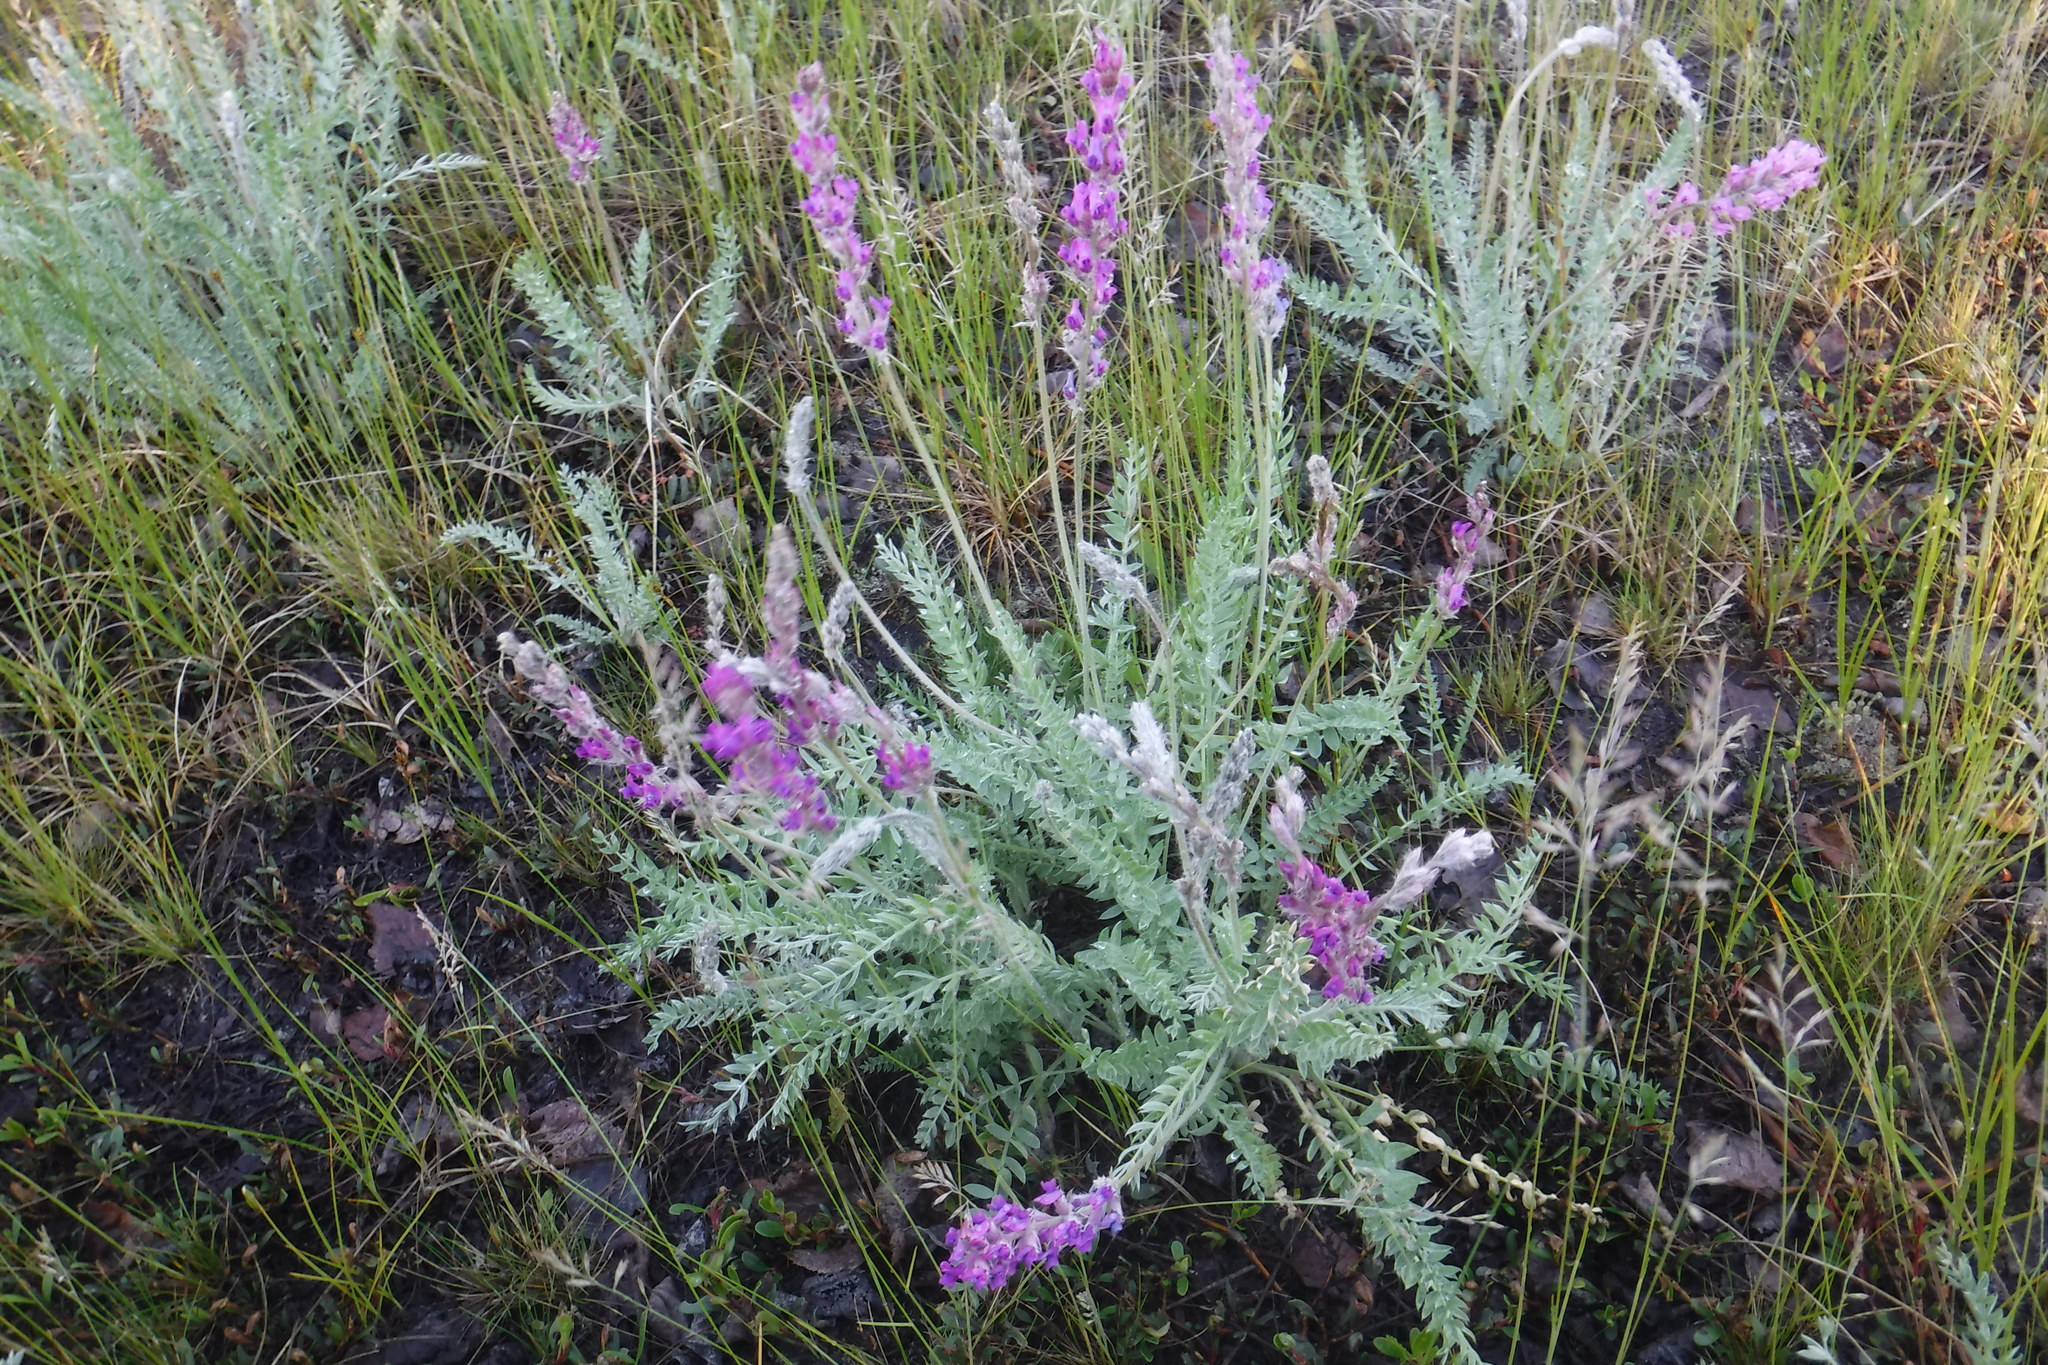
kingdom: Plantae
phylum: Tracheophyta
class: Magnoliopsida
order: Fabales
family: Fabaceae
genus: Oxytropis
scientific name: Oxytropis splendens
